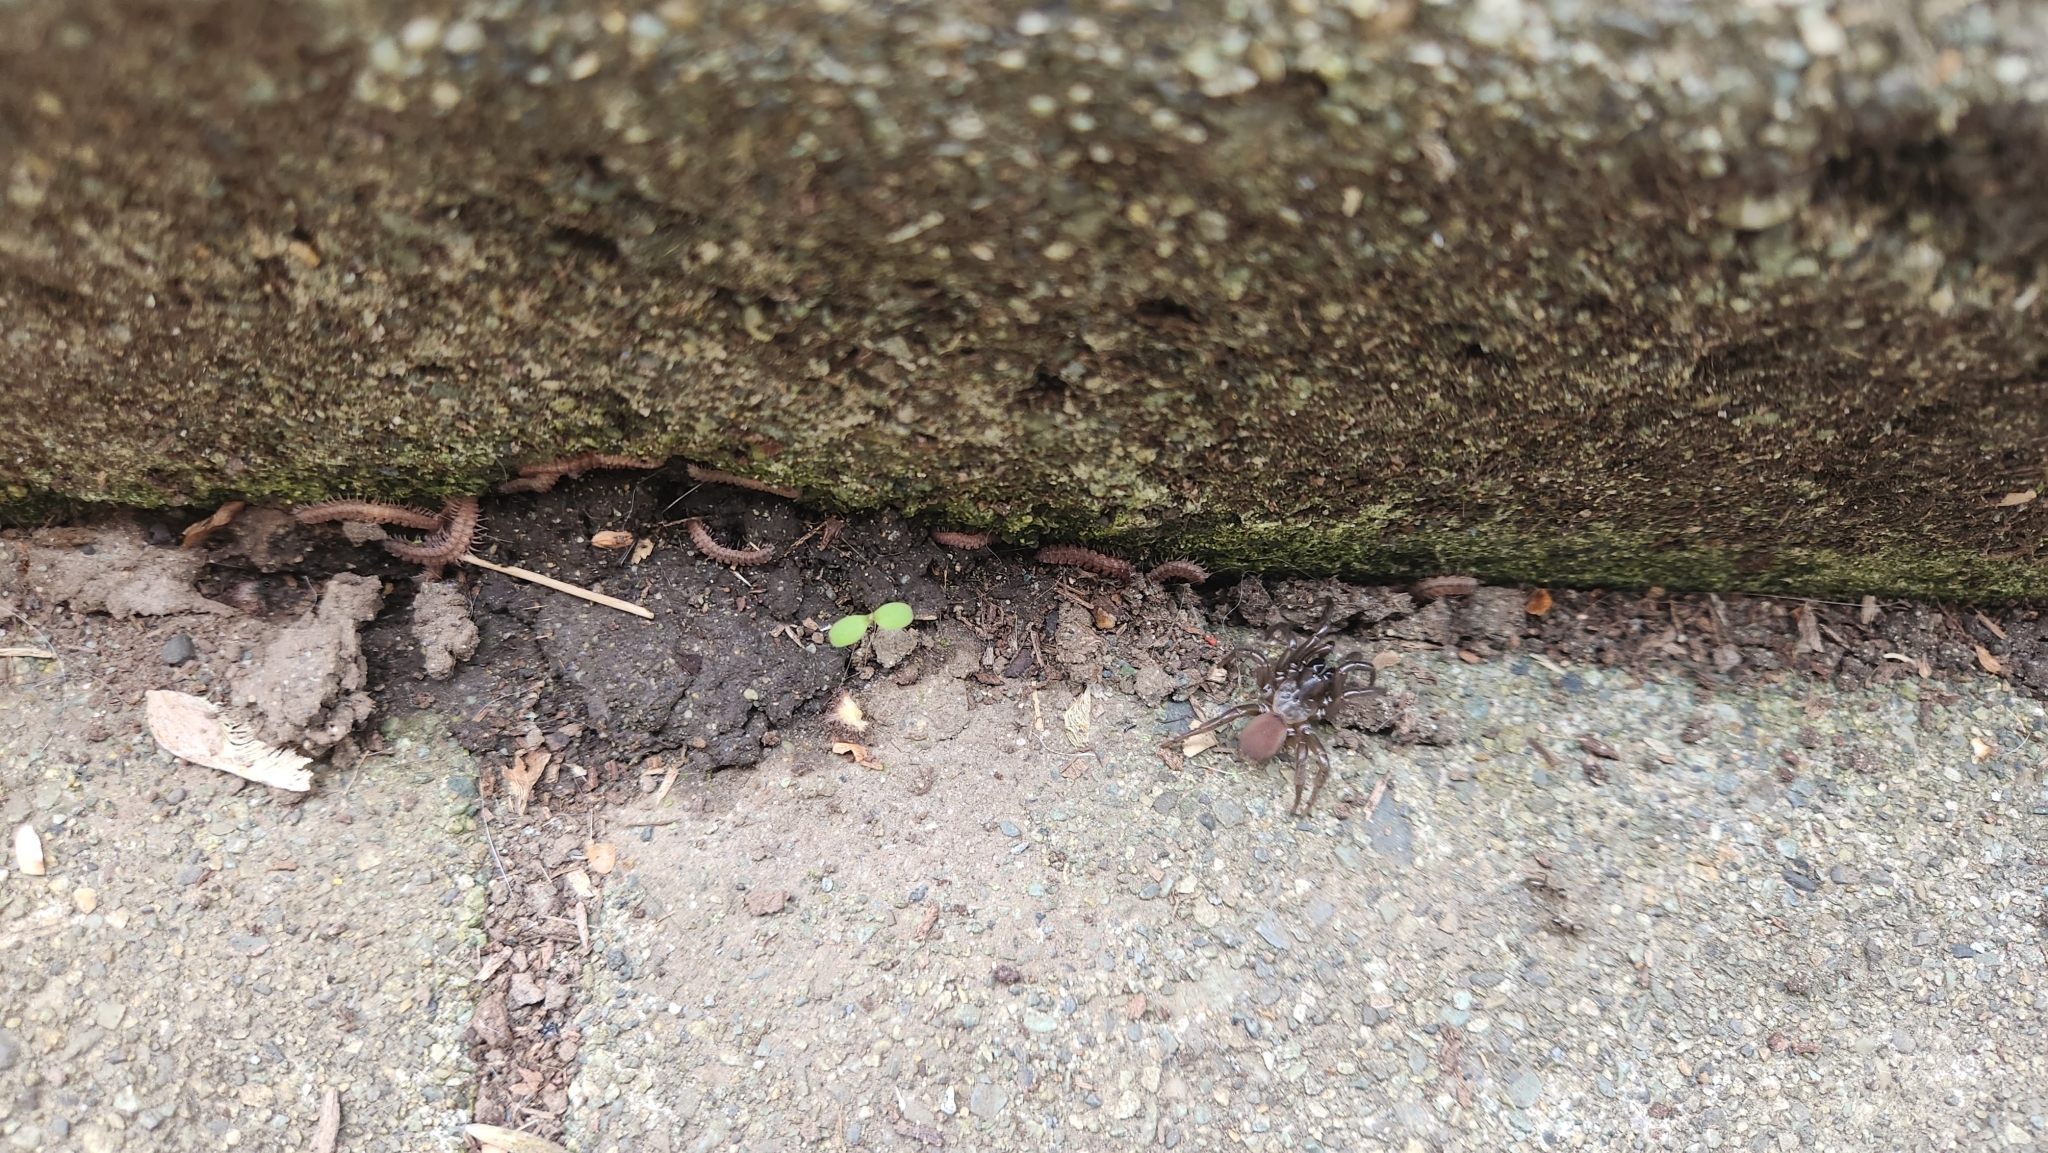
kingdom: Animalia
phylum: Arthropoda
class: Arachnida
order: Araneae
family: Antrodiaetidae
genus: Antrodiaetus
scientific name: Antrodiaetus pacificus
